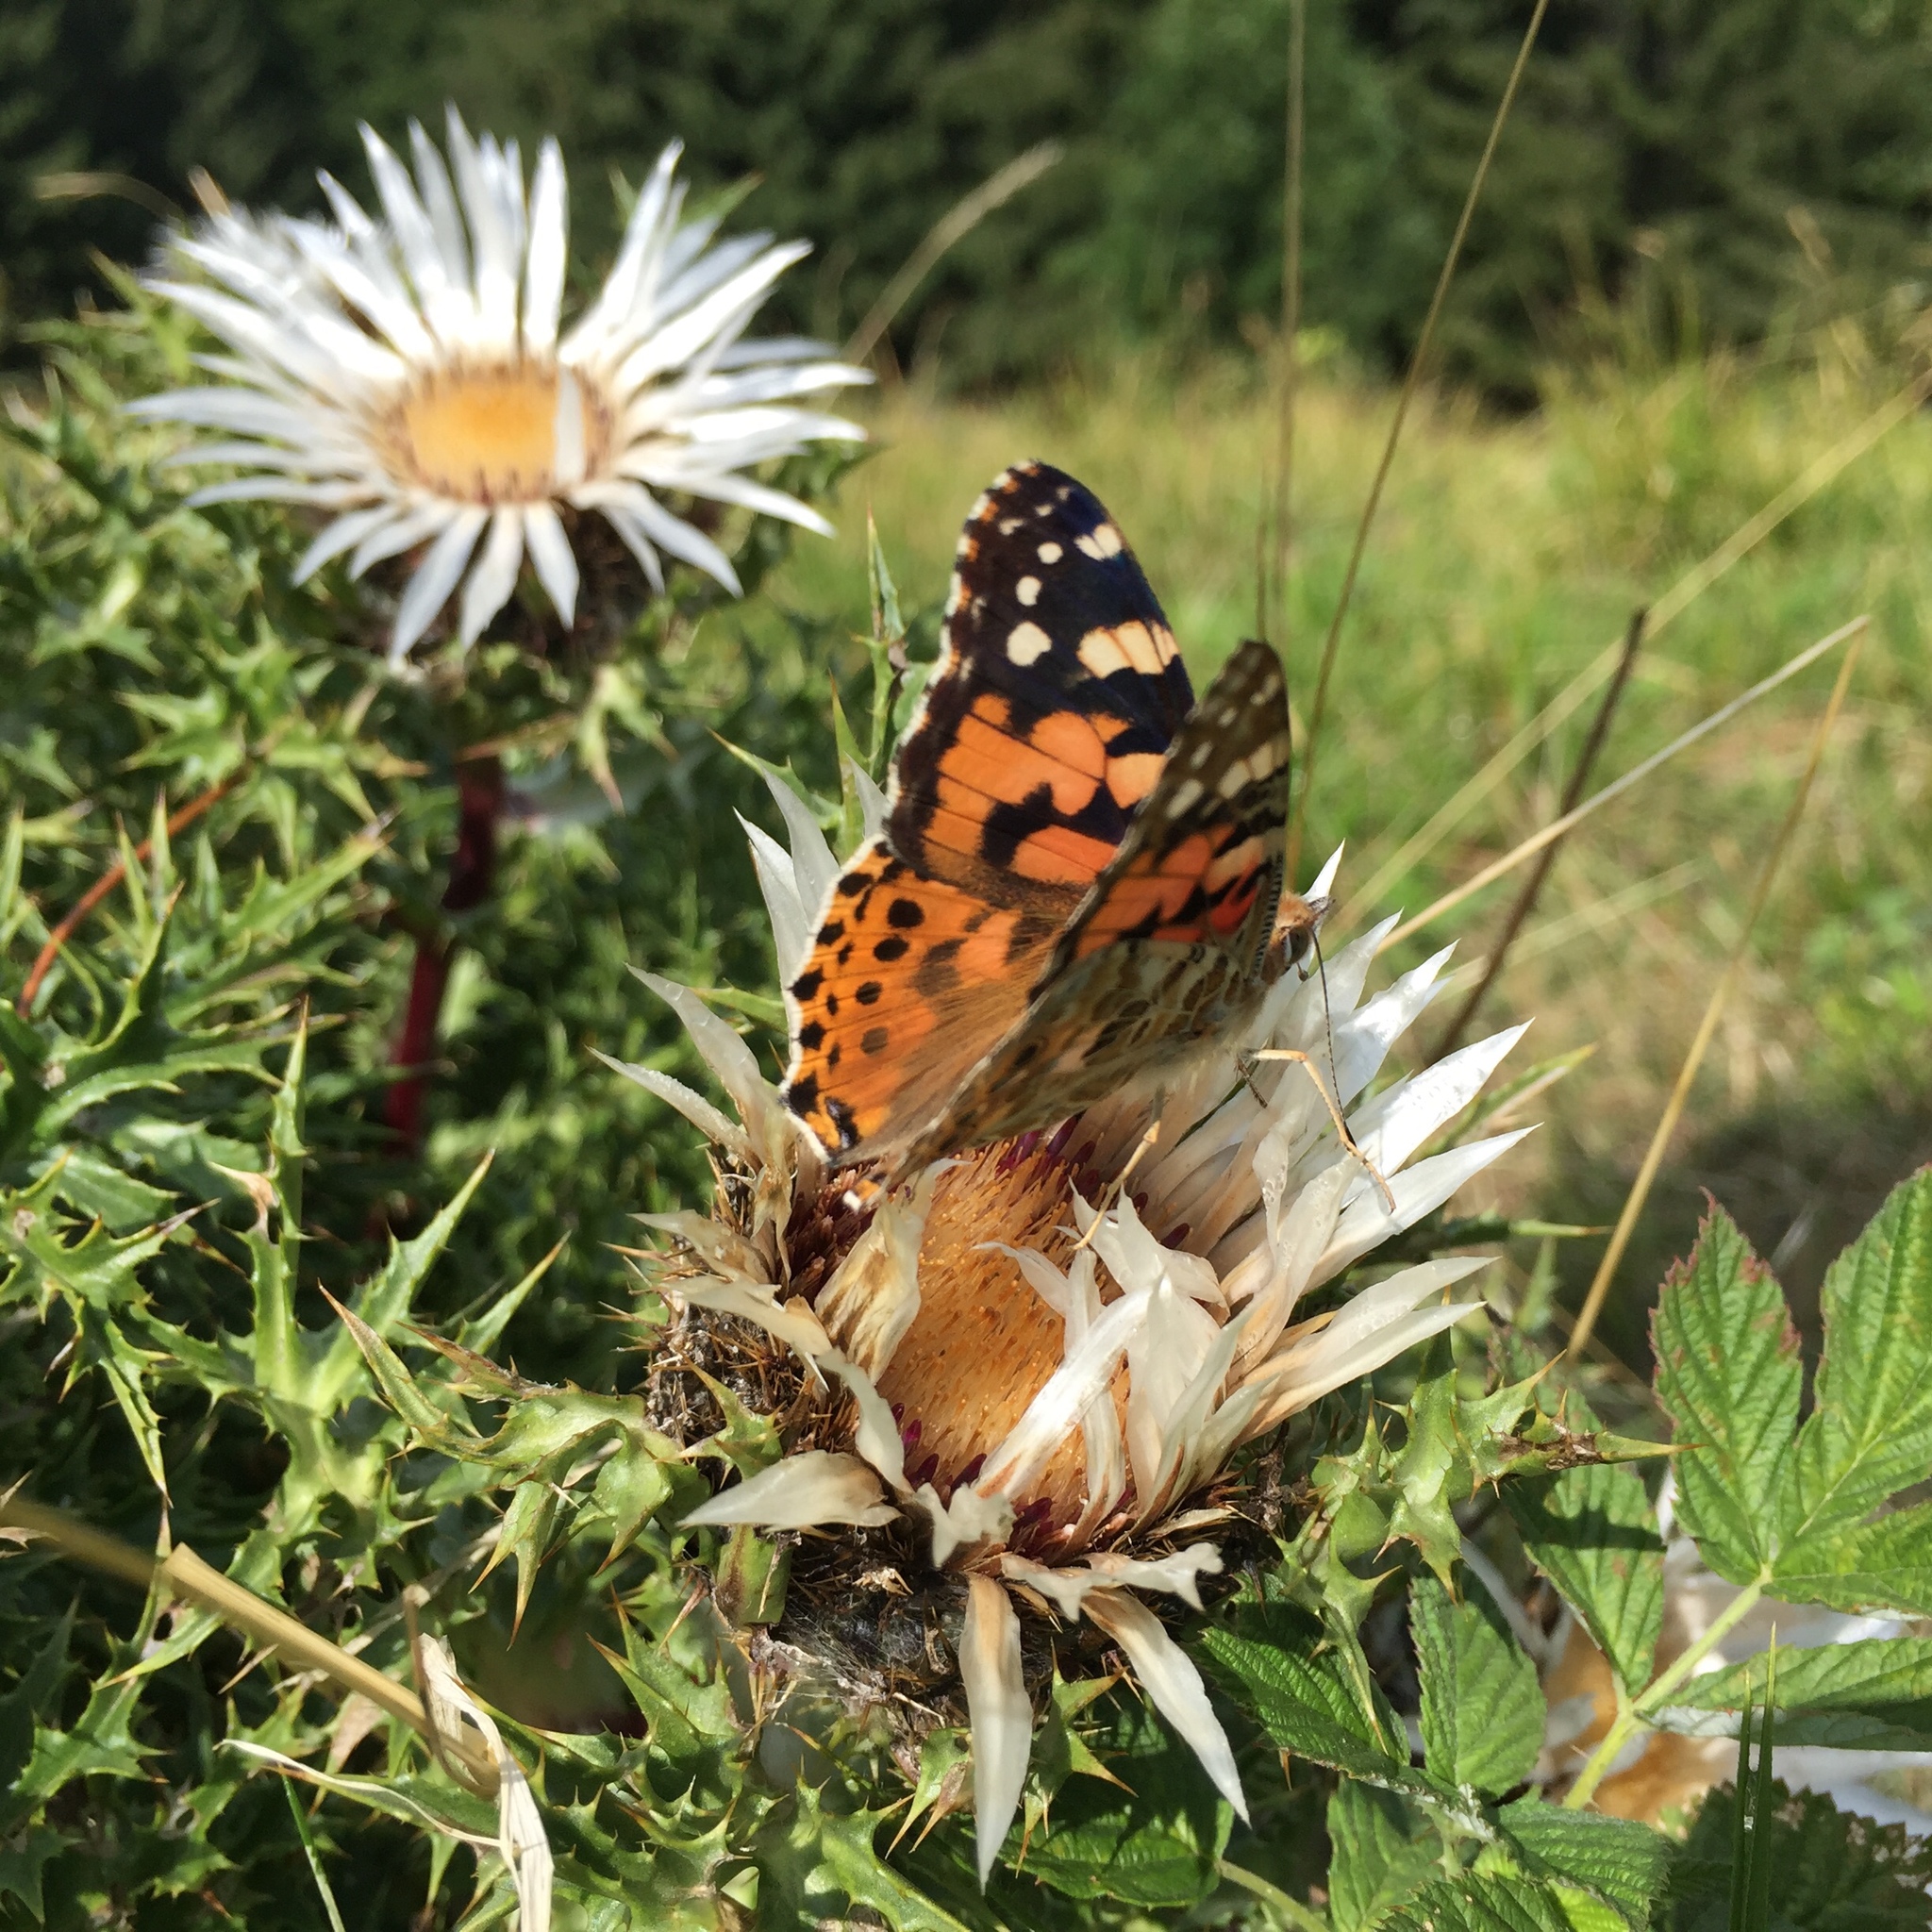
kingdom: Animalia
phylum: Arthropoda
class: Insecta
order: Lepidoptera
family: Nymphalidae
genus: Vanessa
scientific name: Vanessa cardui
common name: Painted lady
